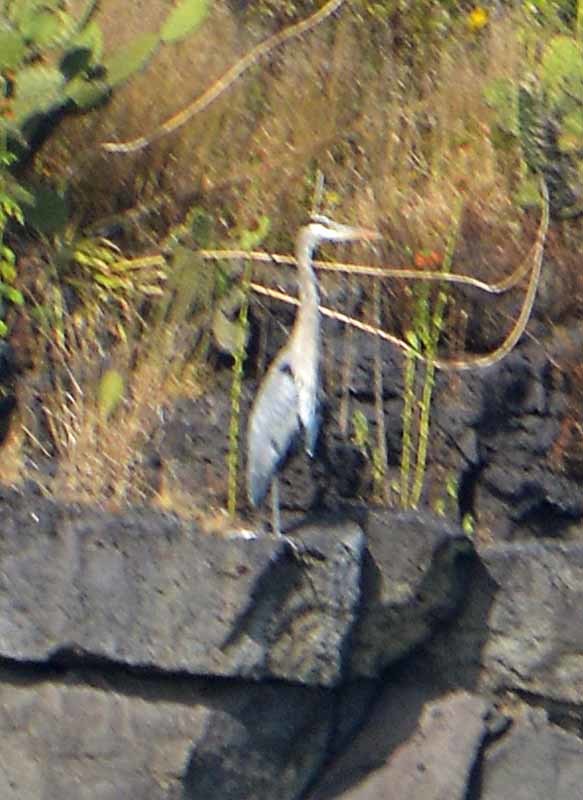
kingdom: Animalia
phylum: Chordata
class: Aves
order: Pelecaniformes
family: Ardeidae
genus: Ardea
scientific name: Ardea herodias
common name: Great blue heron
